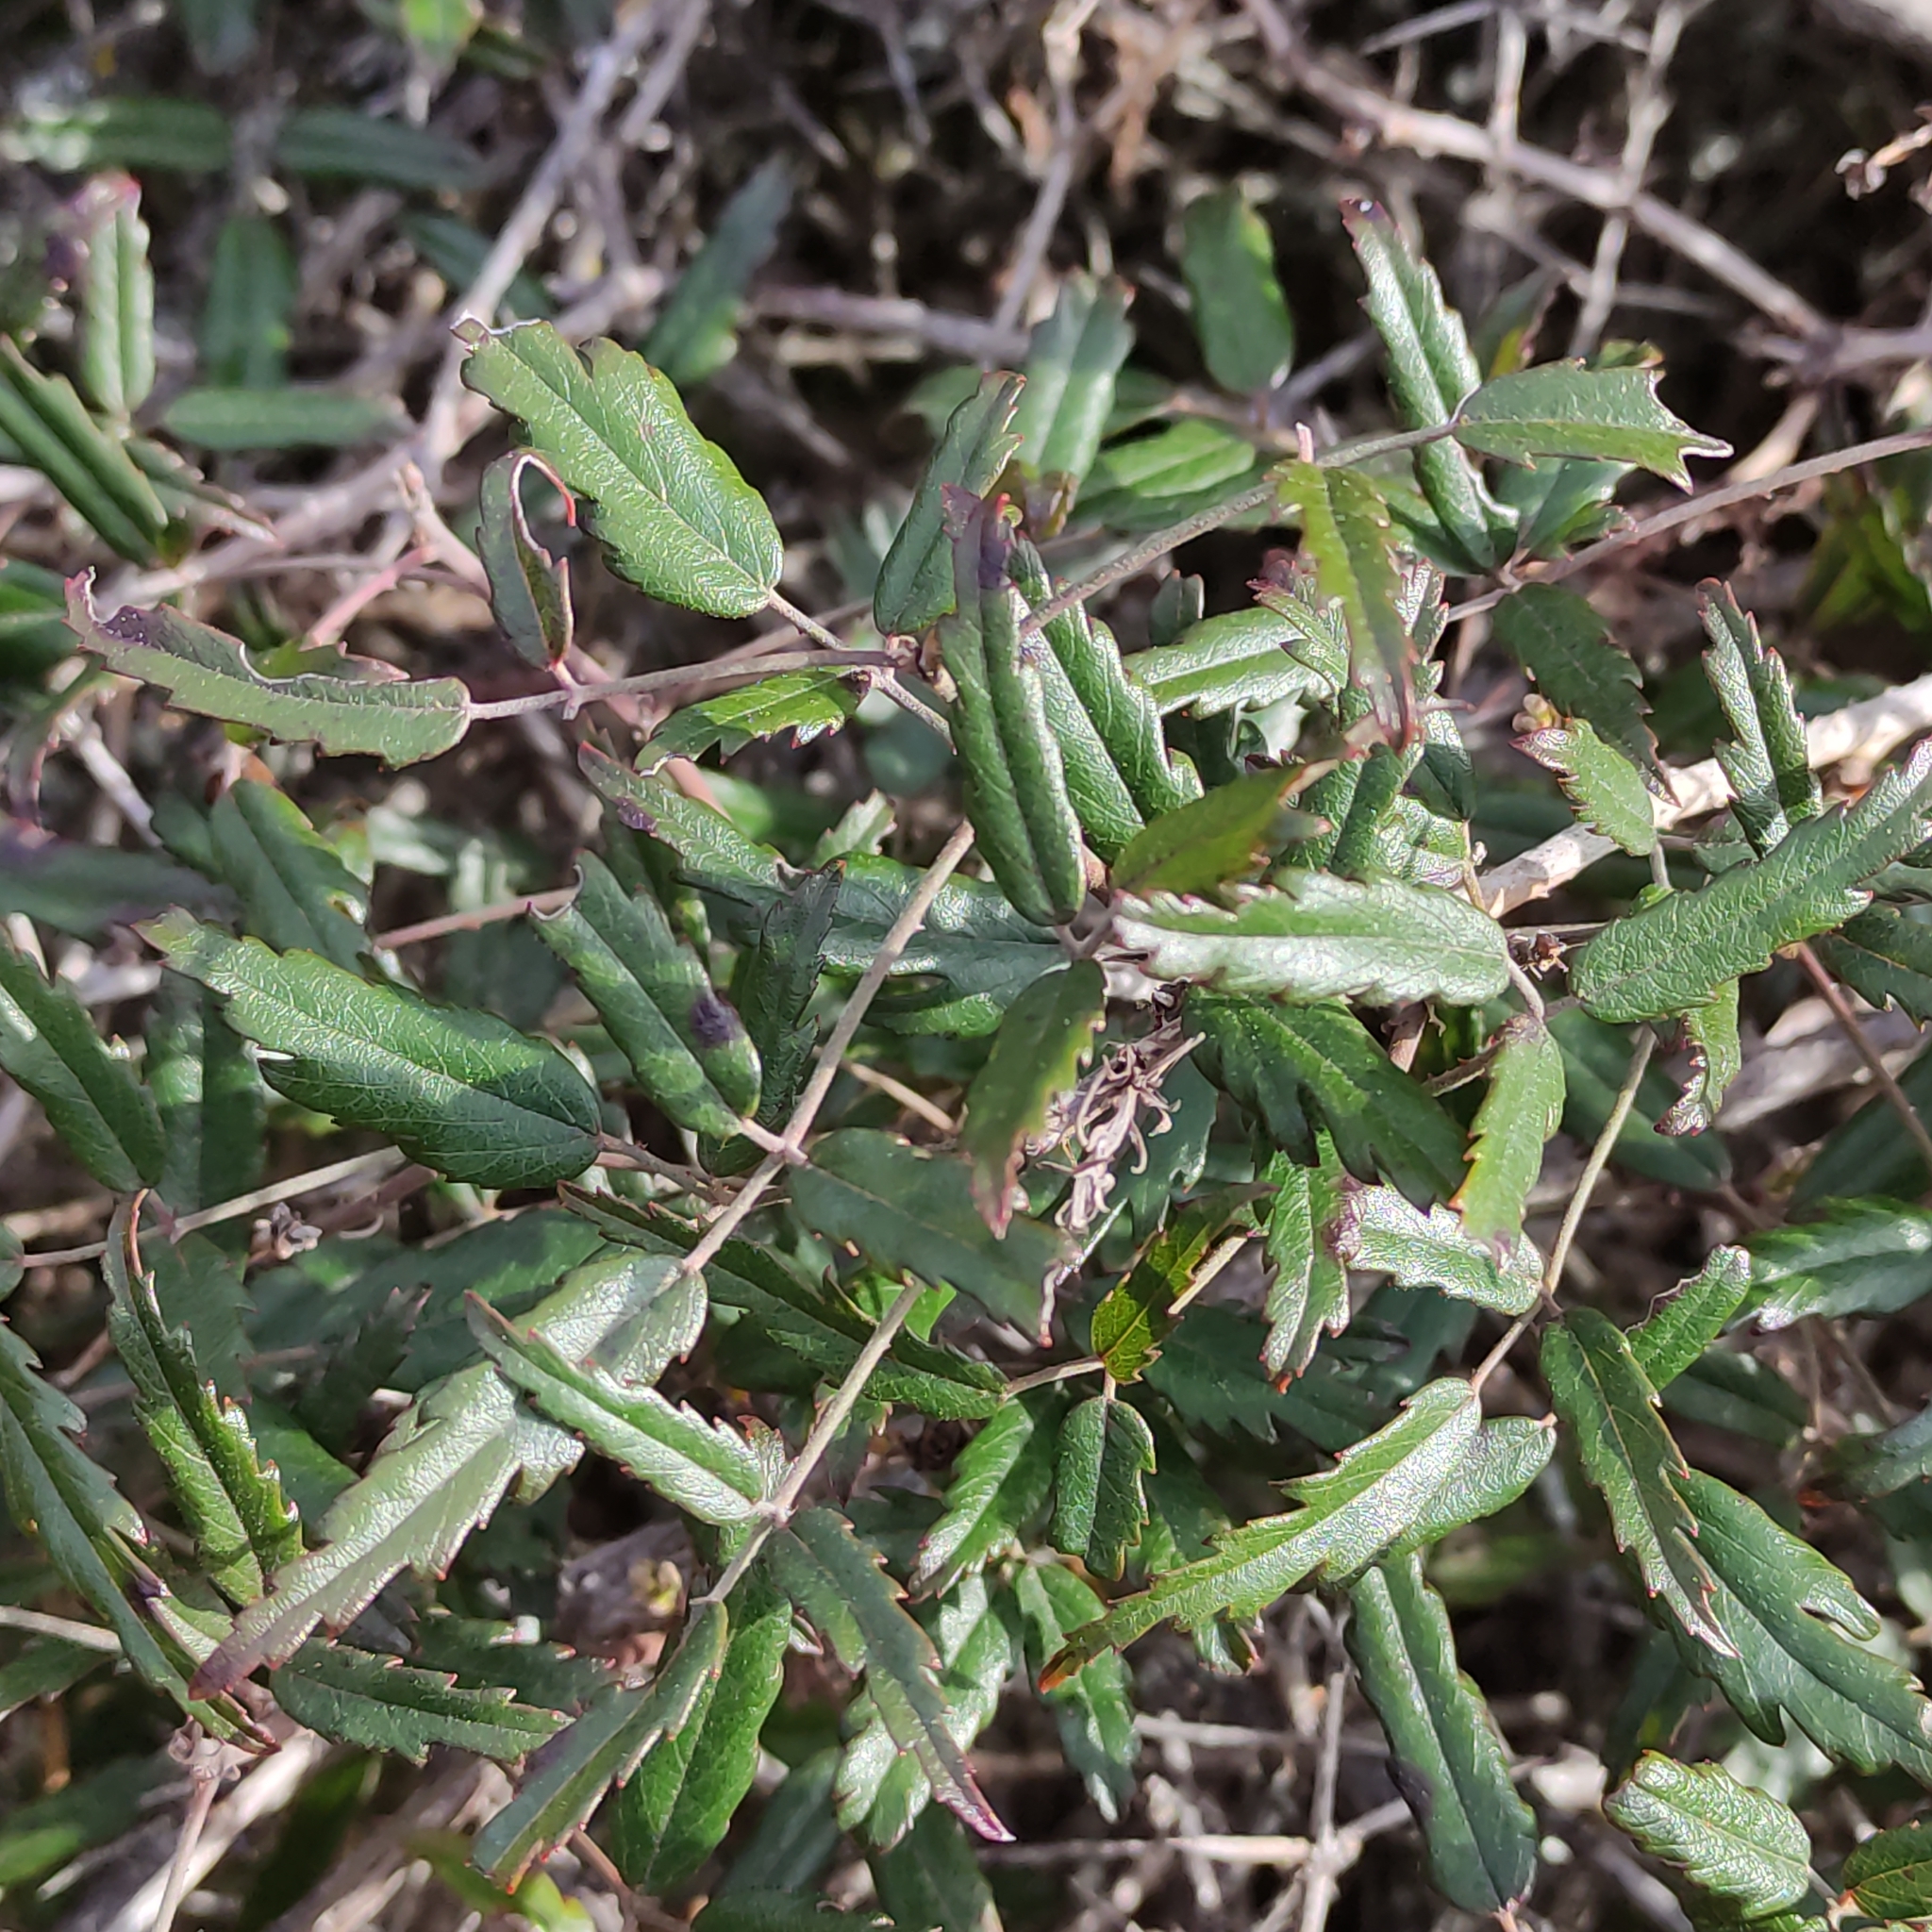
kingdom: Plantae
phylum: Tracheophyta
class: Magnoliopsida
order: Rosales
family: Rosaceae
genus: Rubus
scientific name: Rubus schmidelioides
